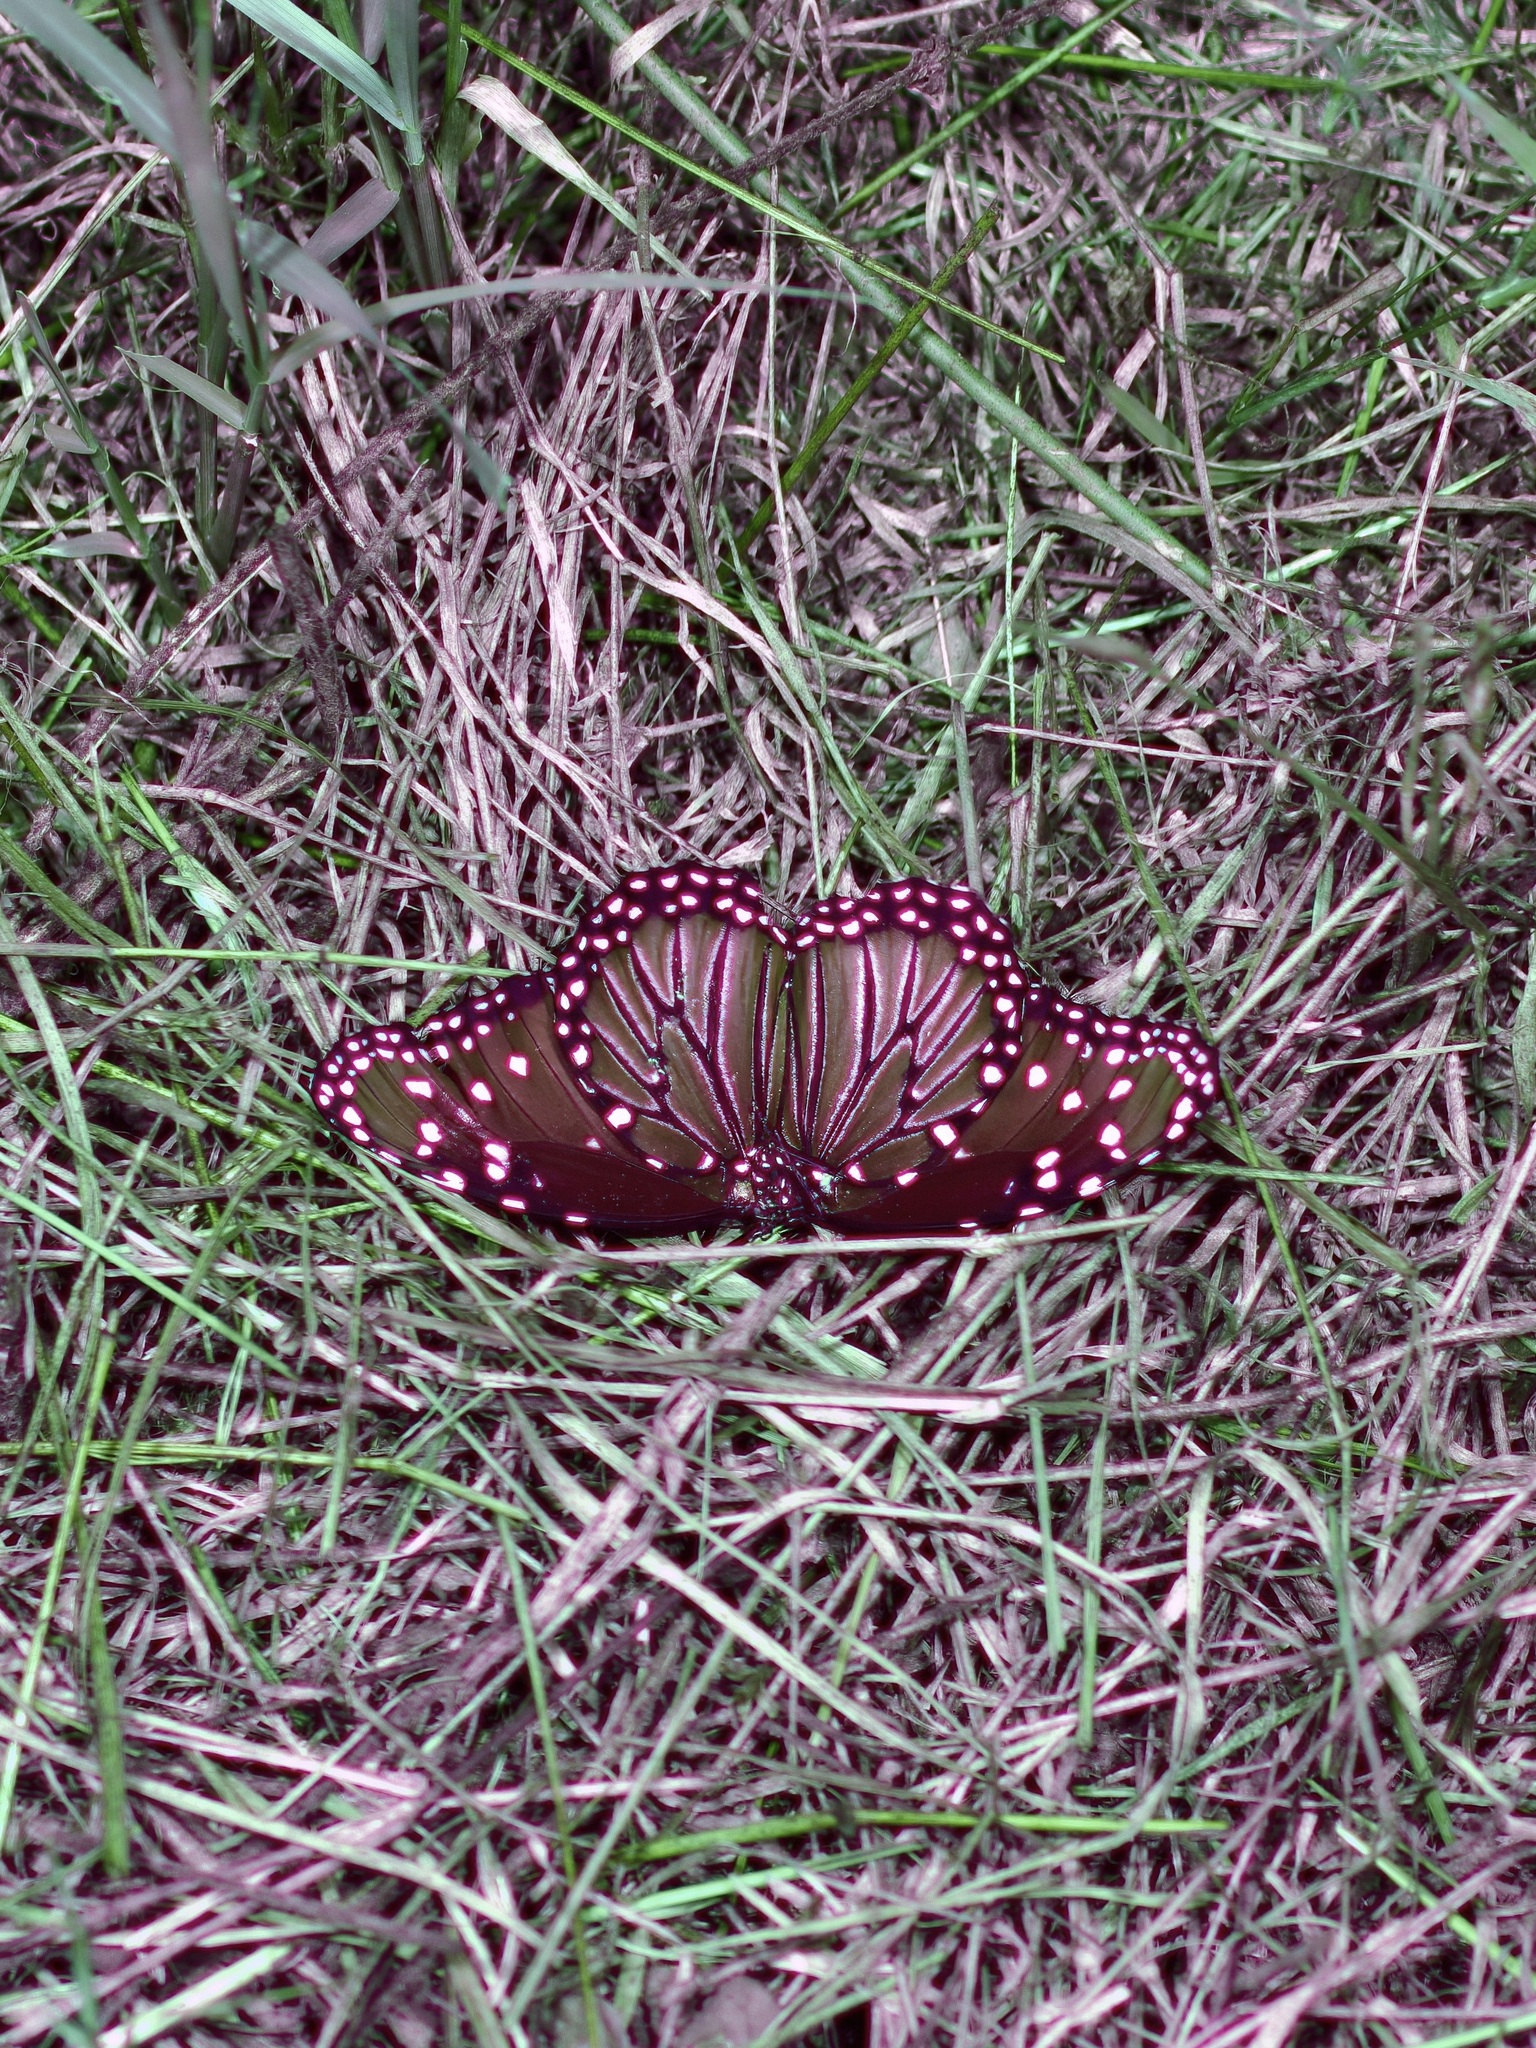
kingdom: Animalia
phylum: Arthropoda
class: Insecta
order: Lepidoptera
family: Nymphalidae
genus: Danaus
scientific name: Danaus gilippus
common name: Queen
